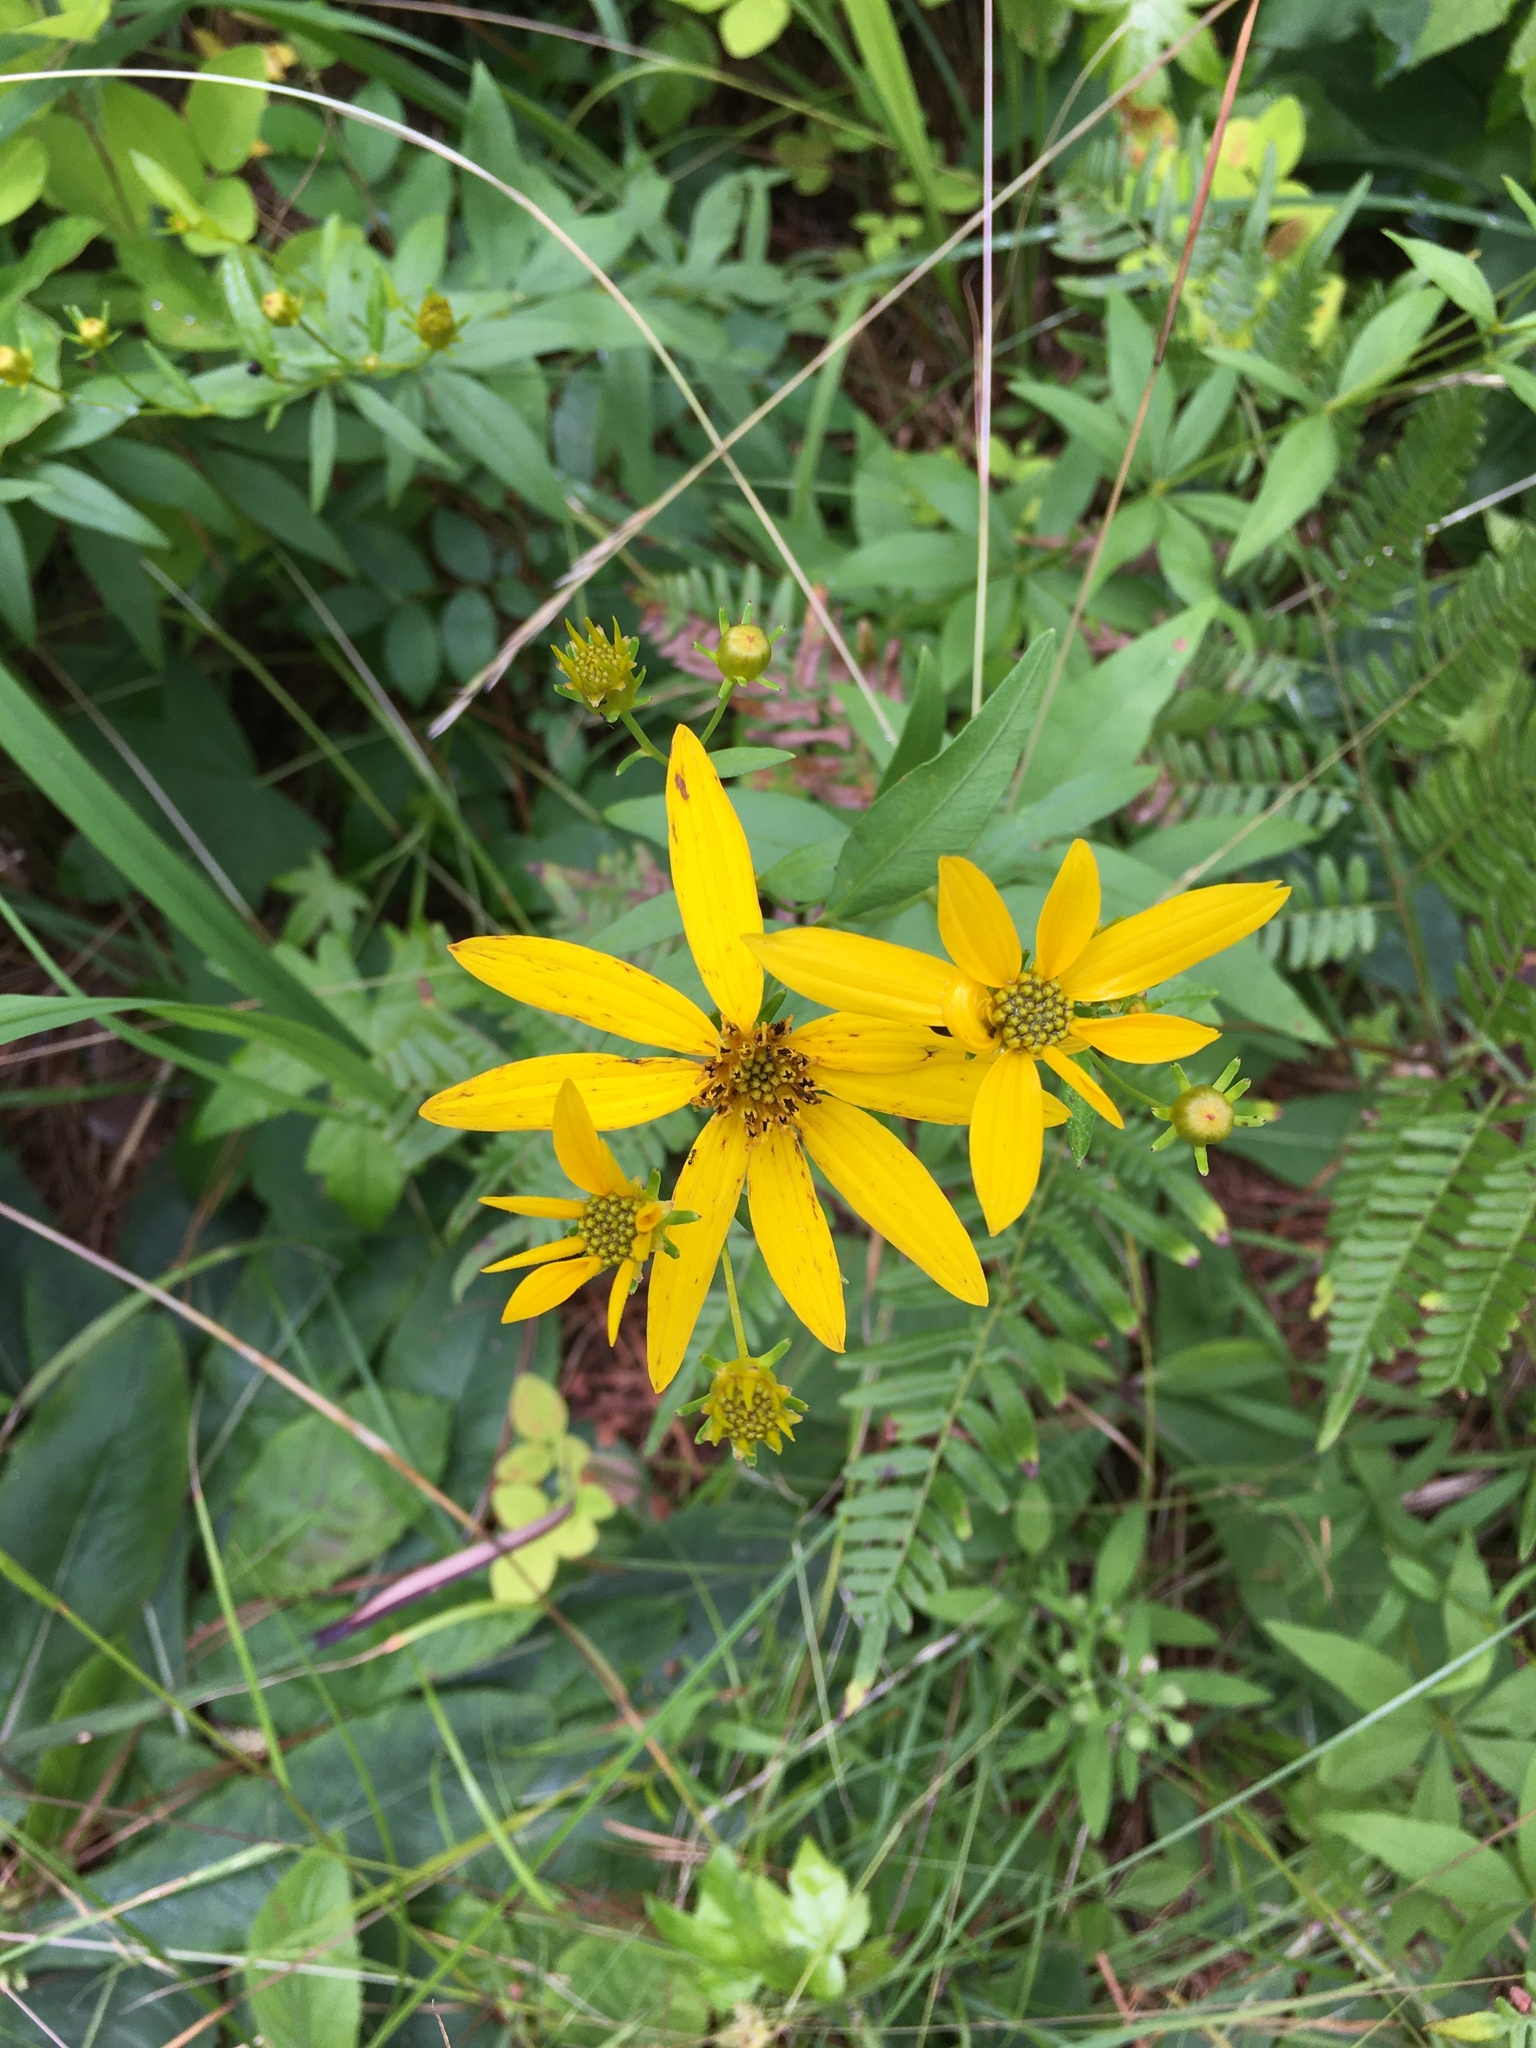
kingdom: Plantae
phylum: Tracheophyta
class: Magnoliopsida
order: Asterales
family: Asteraceae
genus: Coreopsis
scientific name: Coreopsis major
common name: Forest tickseed
